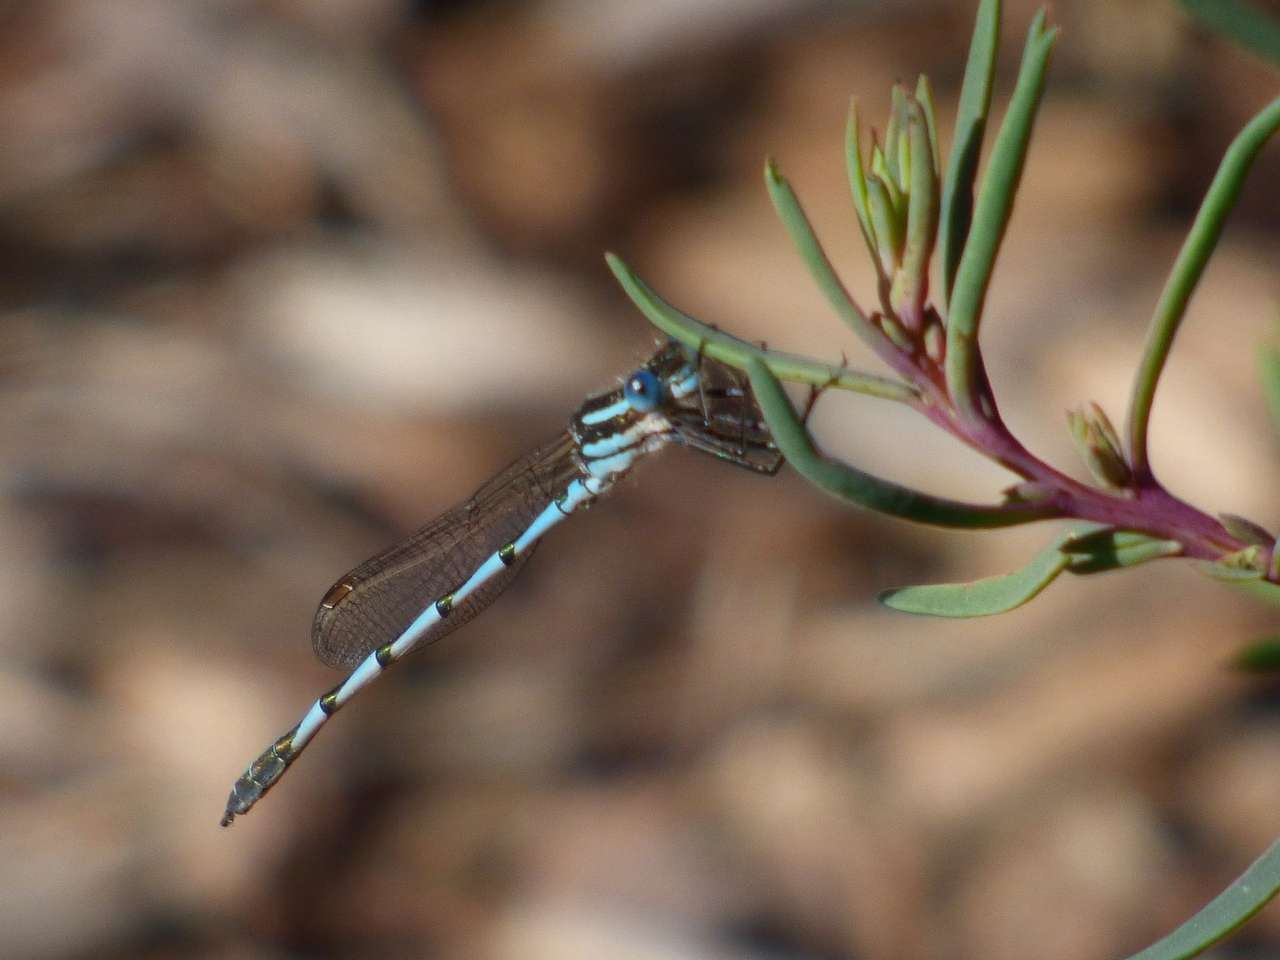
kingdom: Animalia
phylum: Arthropoda
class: Insecta
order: Odonata
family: Lestidae
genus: Austrolestes
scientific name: Austrolestes annulosus
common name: Blue ringtail
